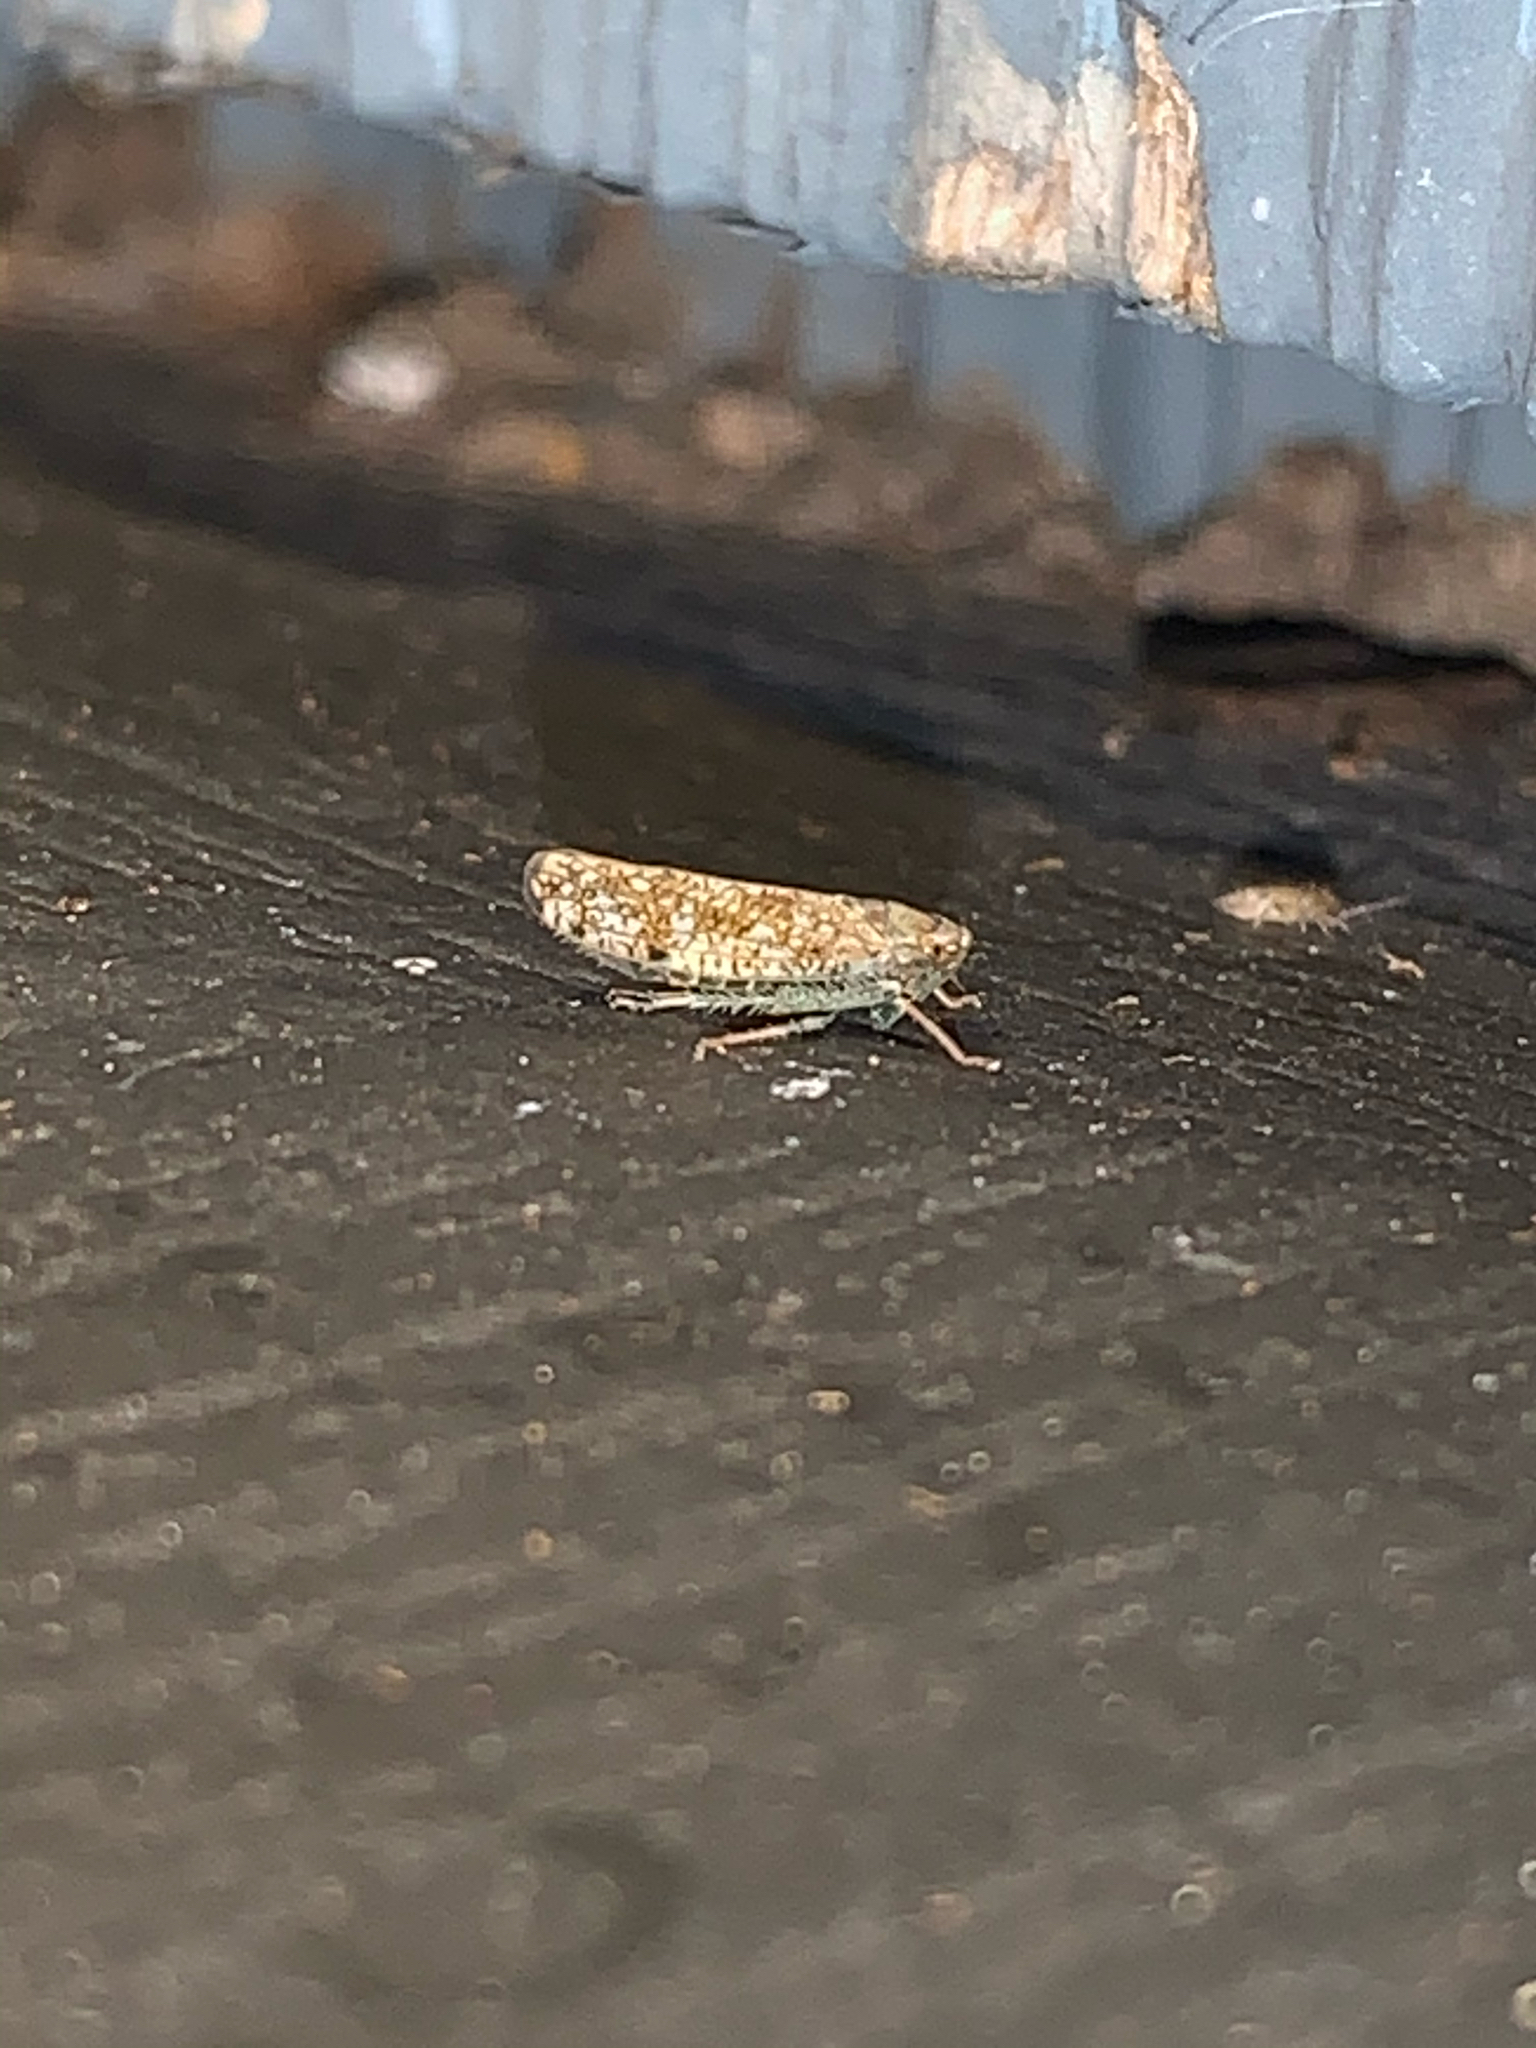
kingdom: Animalia
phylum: Arthropoda
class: Insecta
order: Hemiptera
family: Cicadellidae
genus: Orientus
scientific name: Orientus ishidae
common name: Japanese leafhopper
